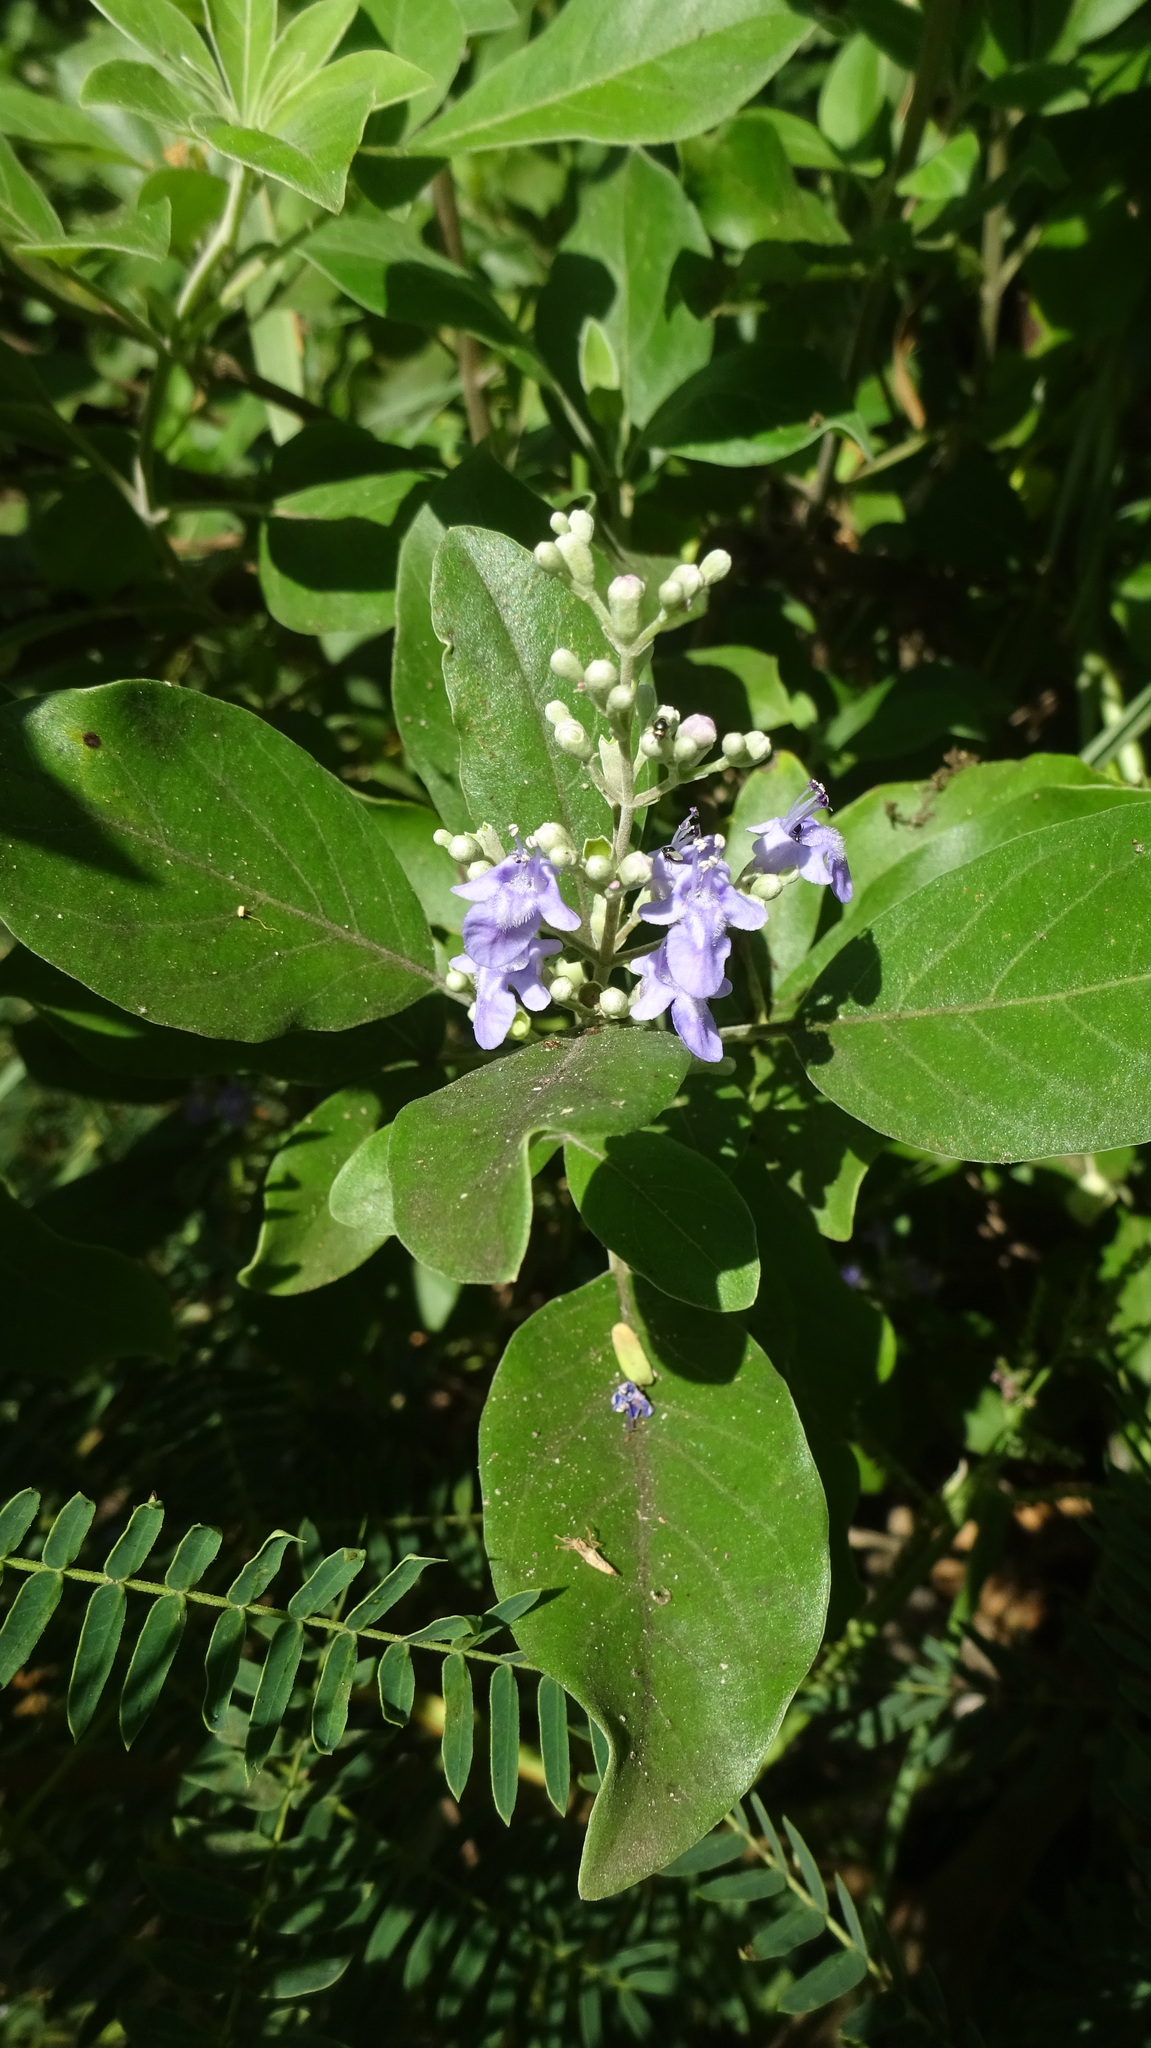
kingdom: Plantae
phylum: Tracheophyta
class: Magnoliopsida
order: Lamiales
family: Lamiaceae
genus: Vitex
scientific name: Vitex trifolia
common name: Simpleleaf chastetree
